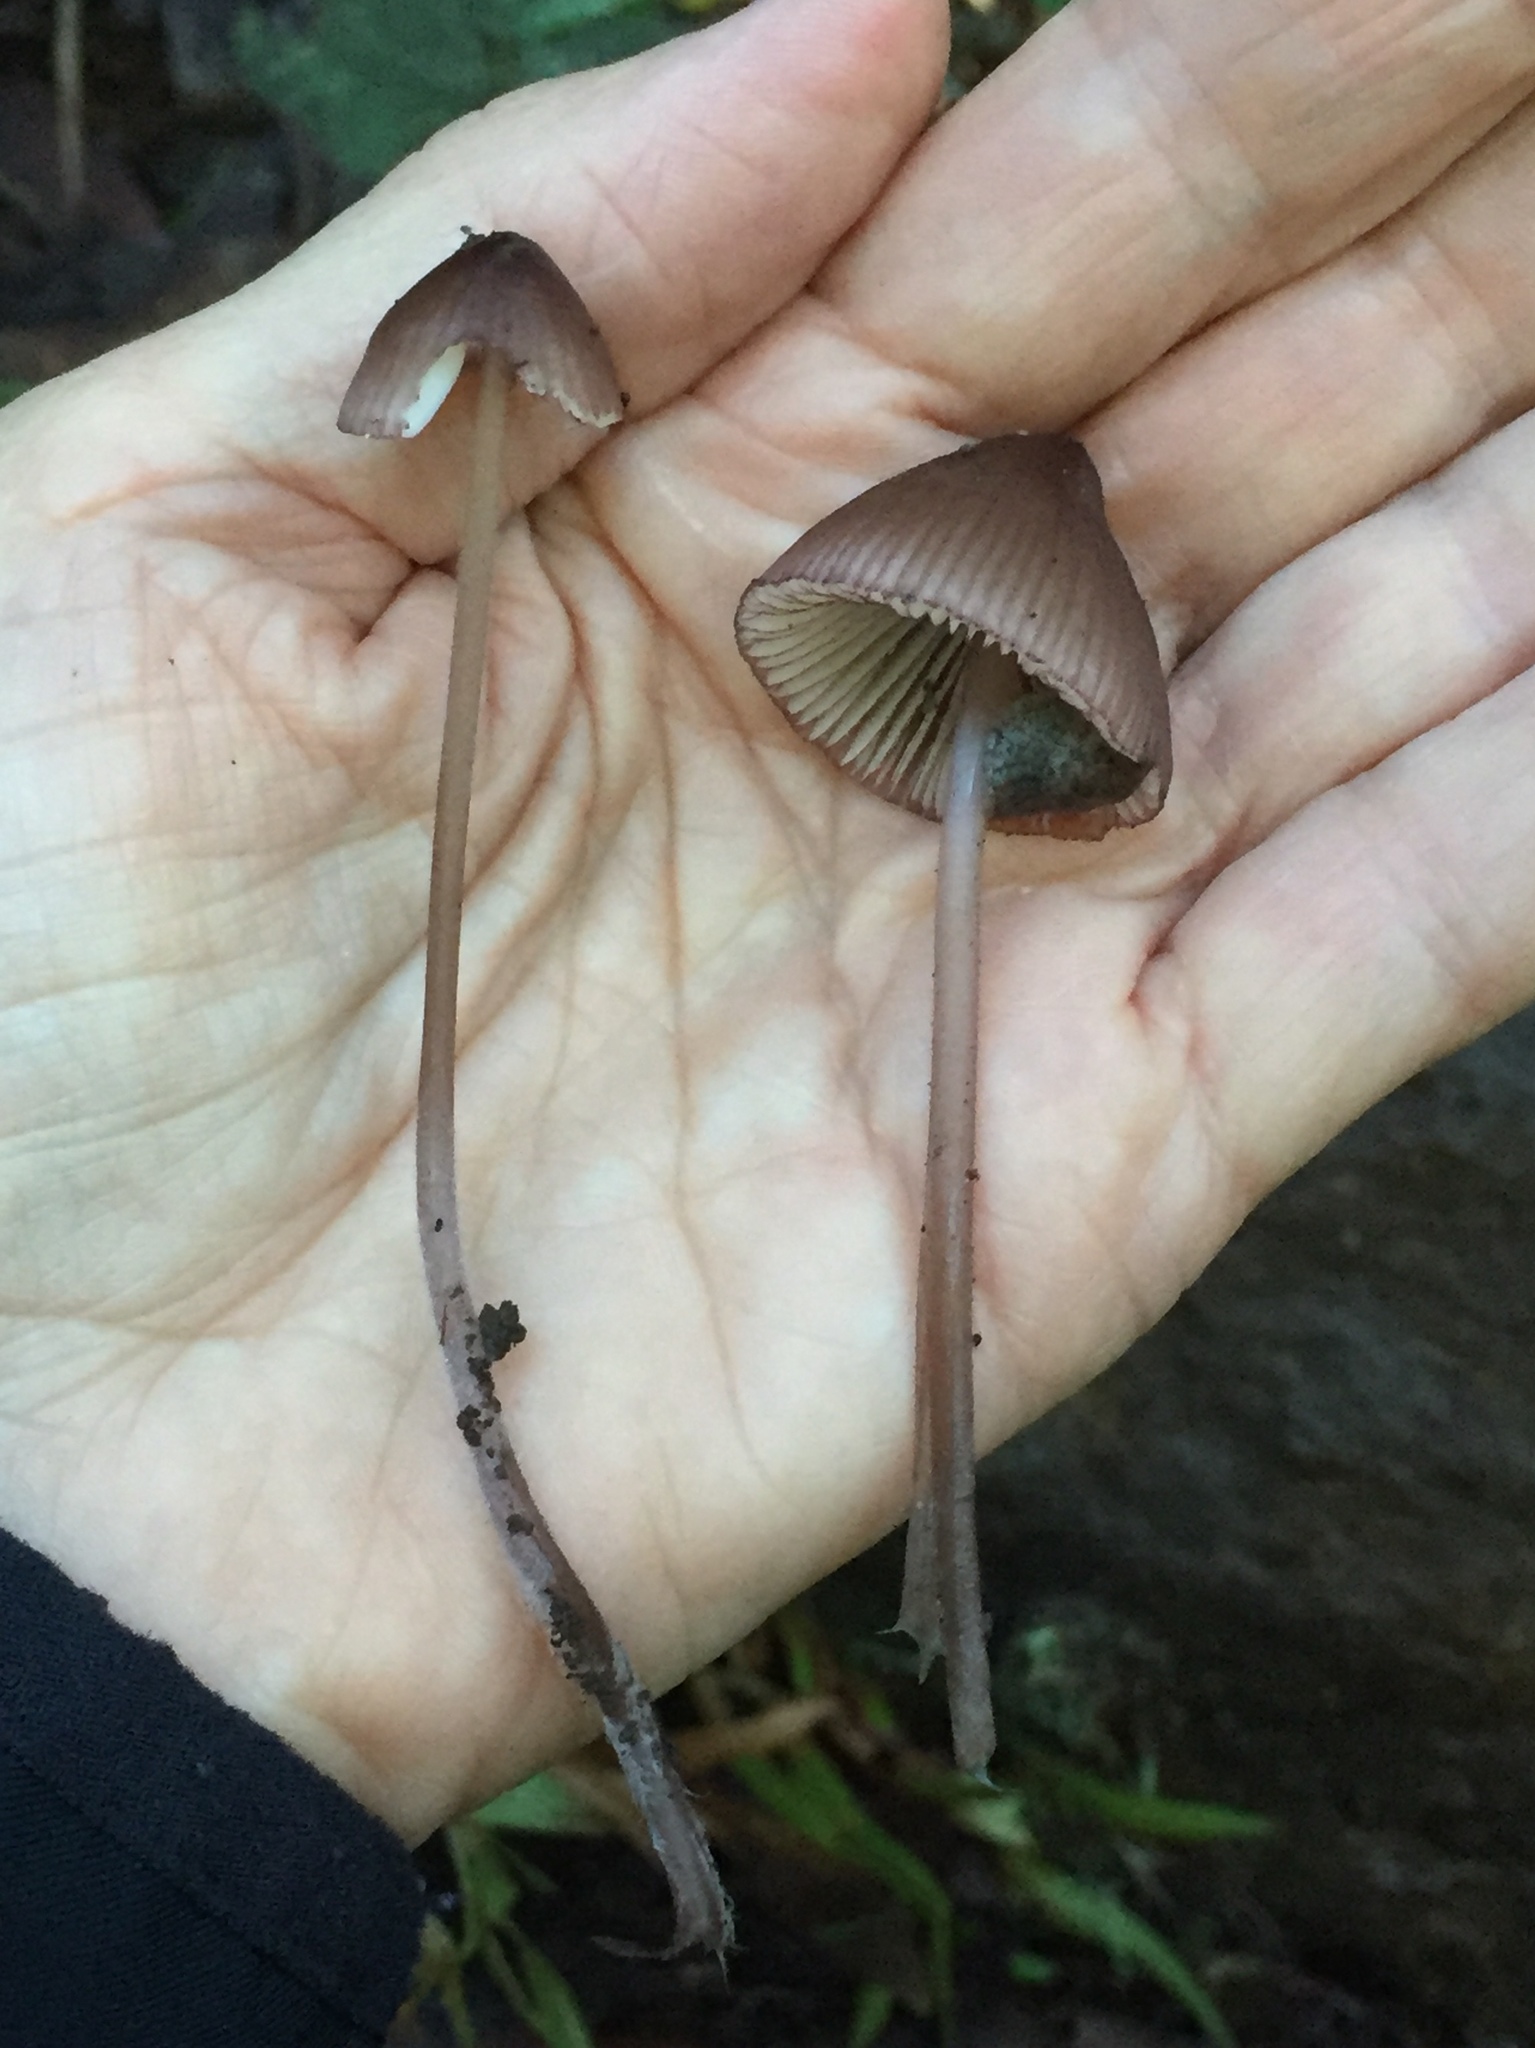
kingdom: Fungi
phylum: Basidiomycota
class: Agaricomycetes
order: Agaricales
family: Mycenaceae
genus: Mycena
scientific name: Mycena purpureofusca
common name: Purple edge bonnet
